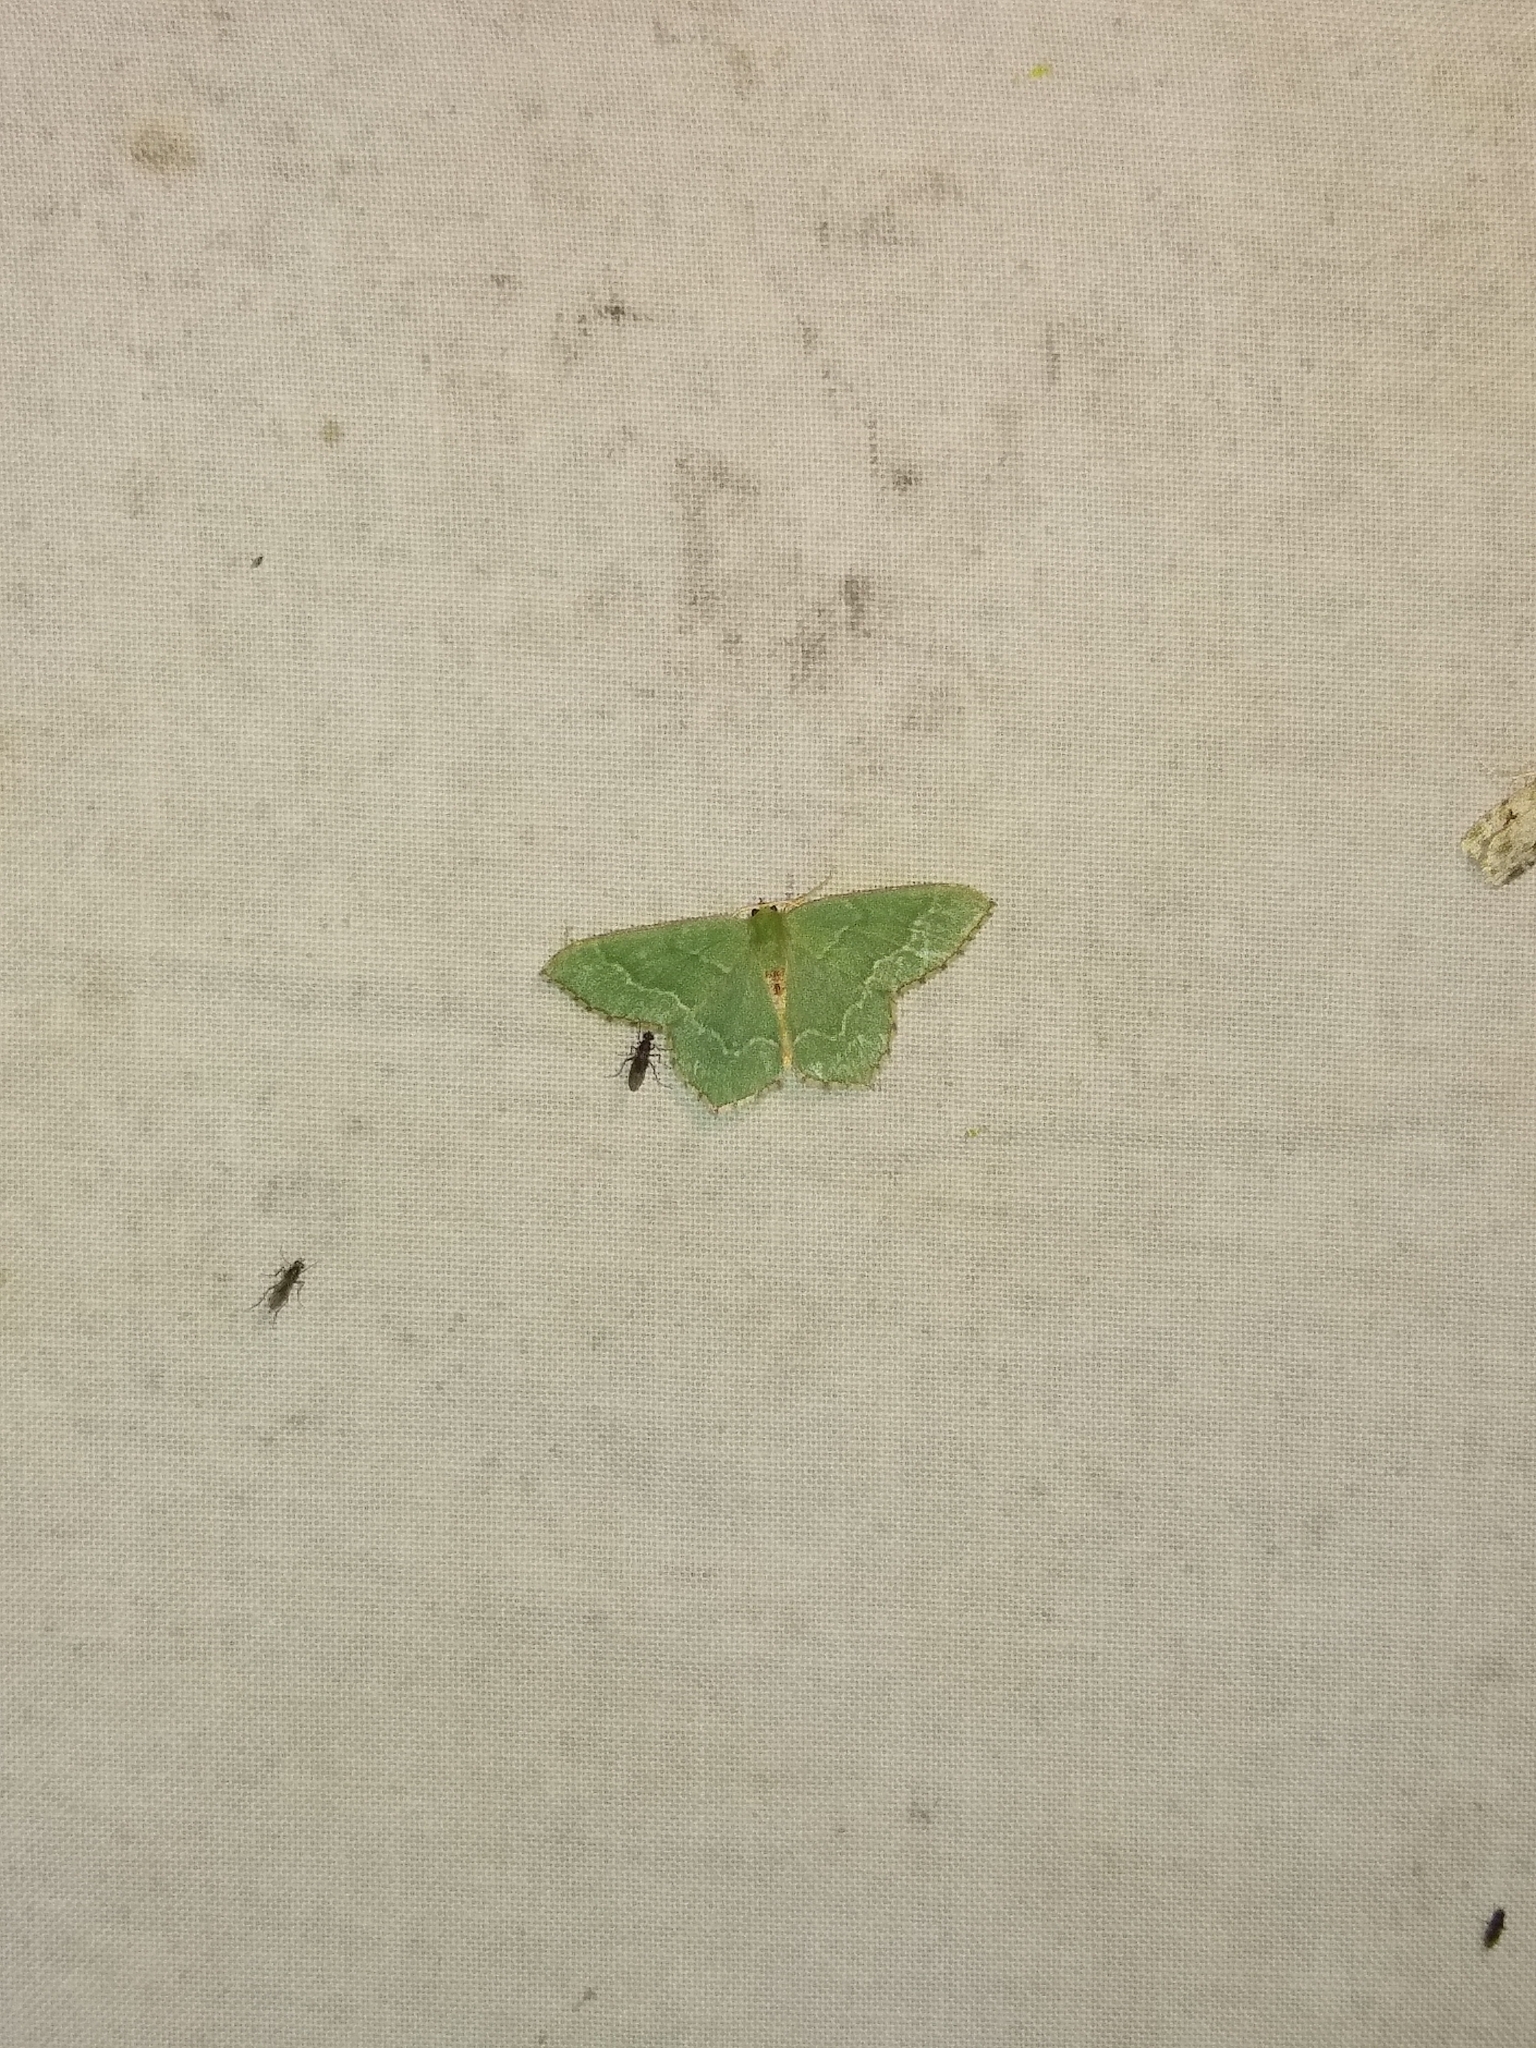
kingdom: Animalia
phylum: Arthropoda
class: Insecta
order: Lepidoptera
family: Geometridae
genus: Hemithea
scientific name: Hemithea aestivaria
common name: Common emerald
